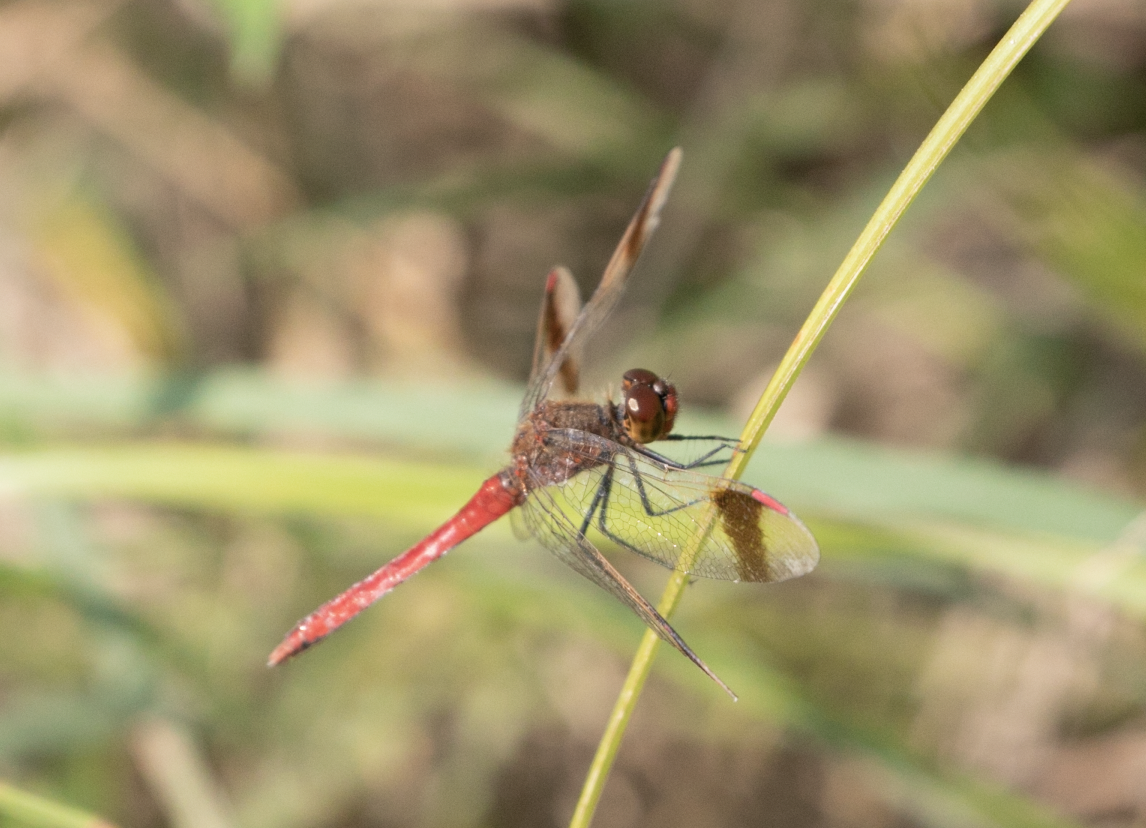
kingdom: Animalia
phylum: Arthropoda
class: Insecta
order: Odonata
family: Libellulidae
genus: Sympetrum
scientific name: Sympetrum pedemontanum
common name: Banded darter
